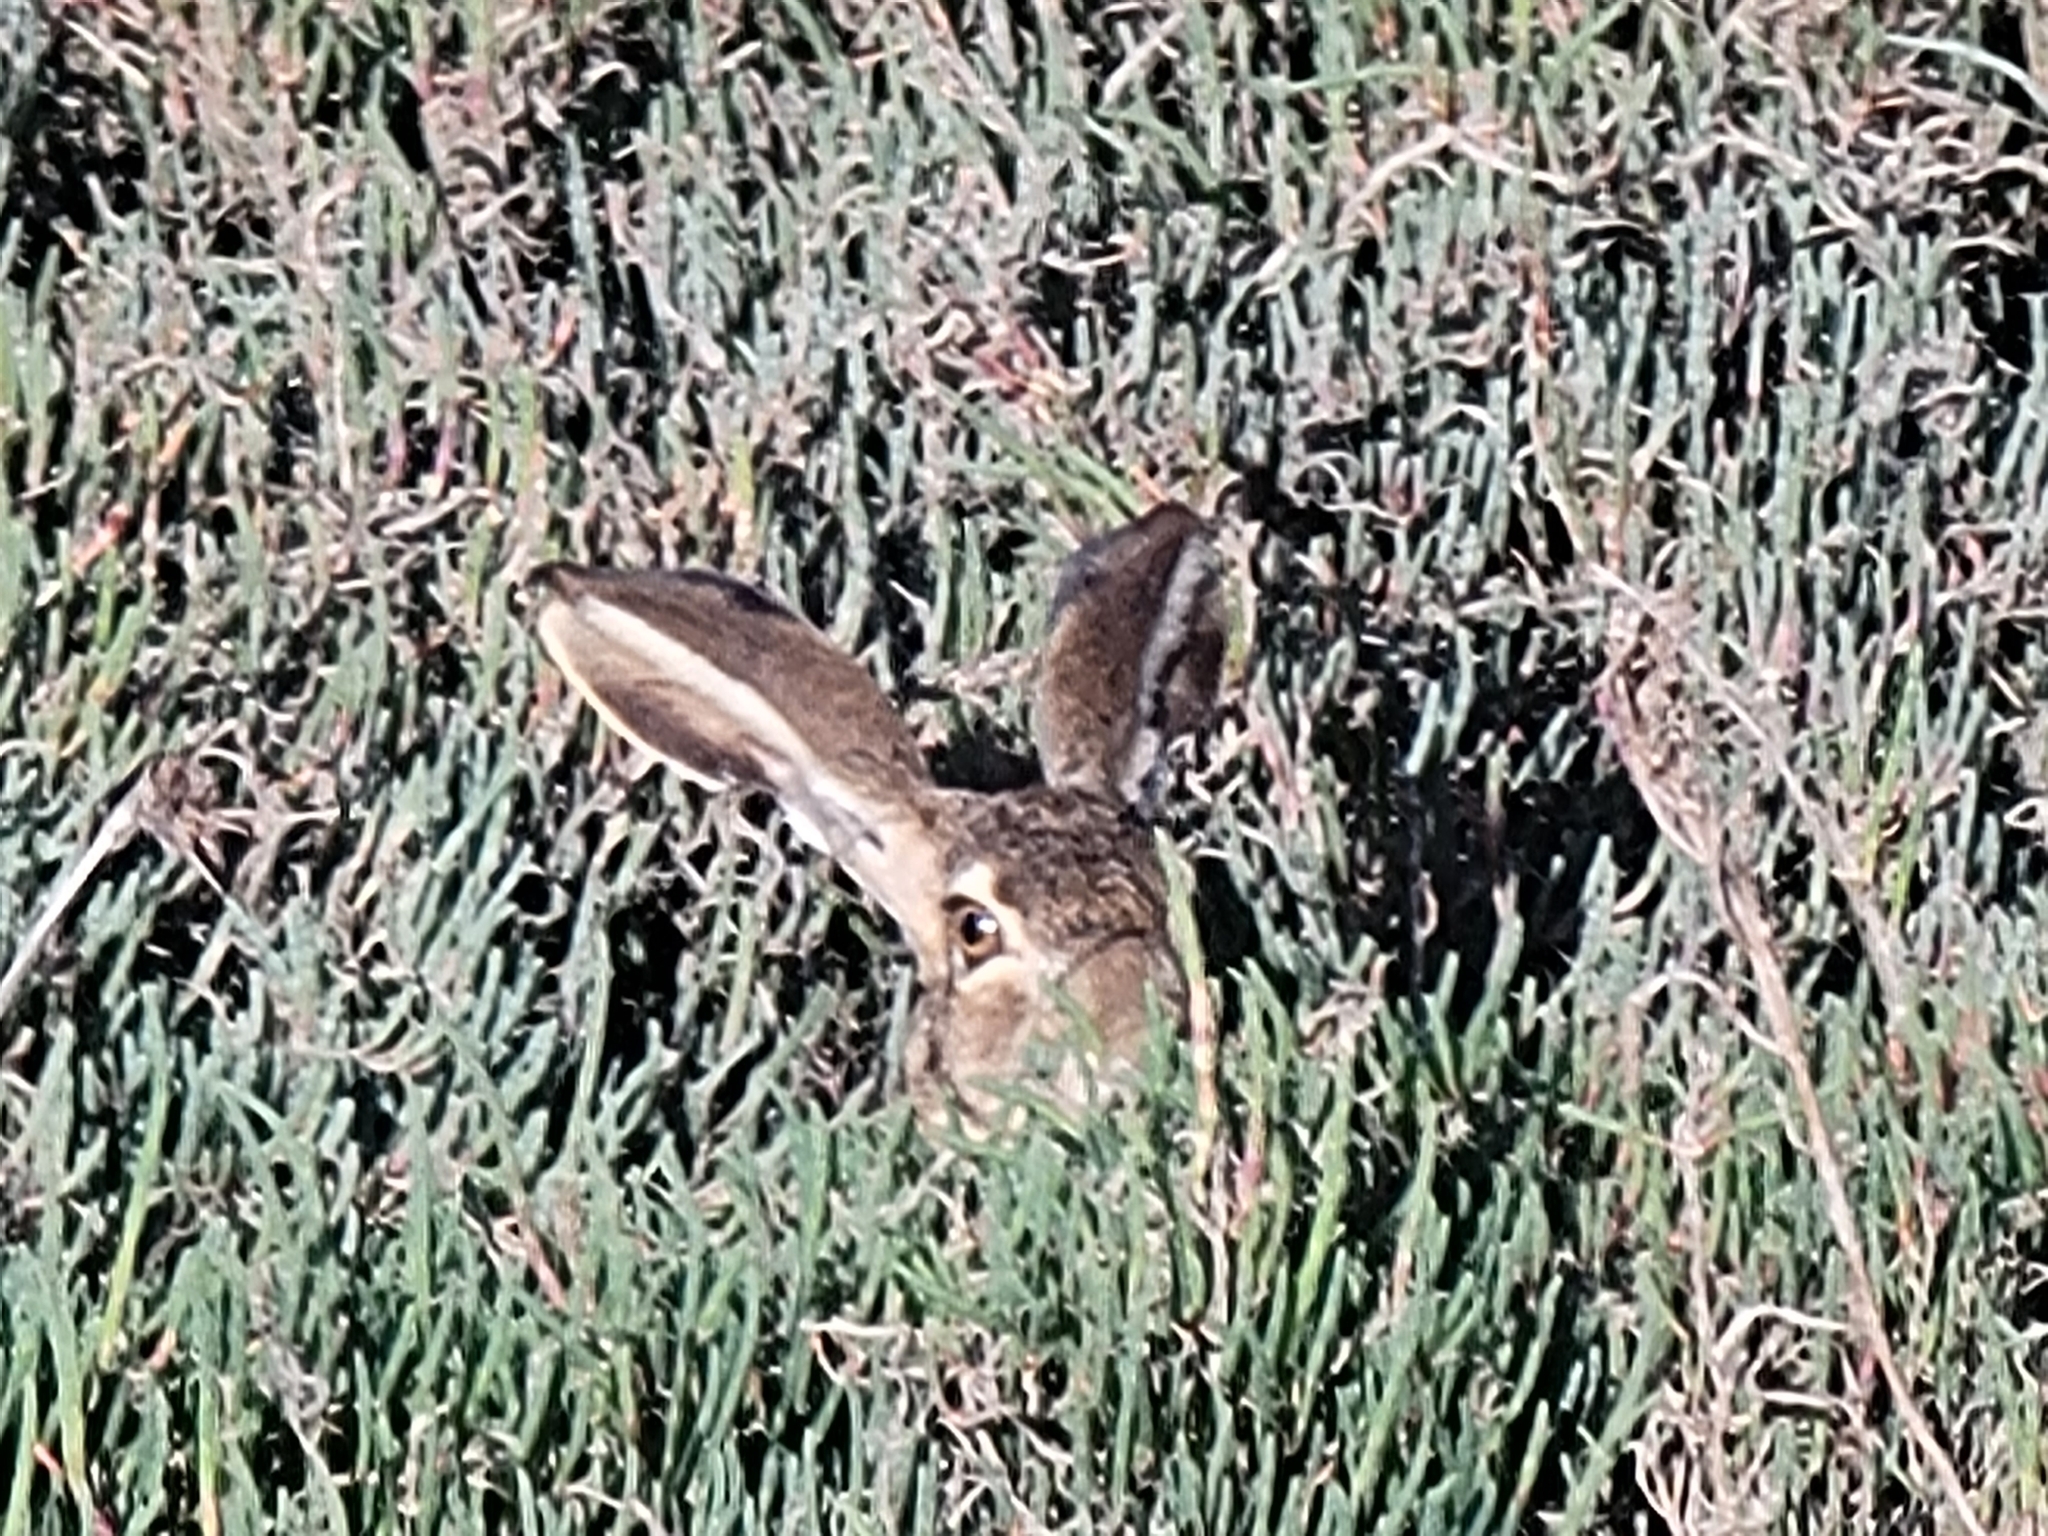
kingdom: Animalia
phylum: Chordata
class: Mammalia
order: Lagomorpha
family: Leporidae
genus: Lepus
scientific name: Lepus californicus
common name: Black-tailed jackrabbit
